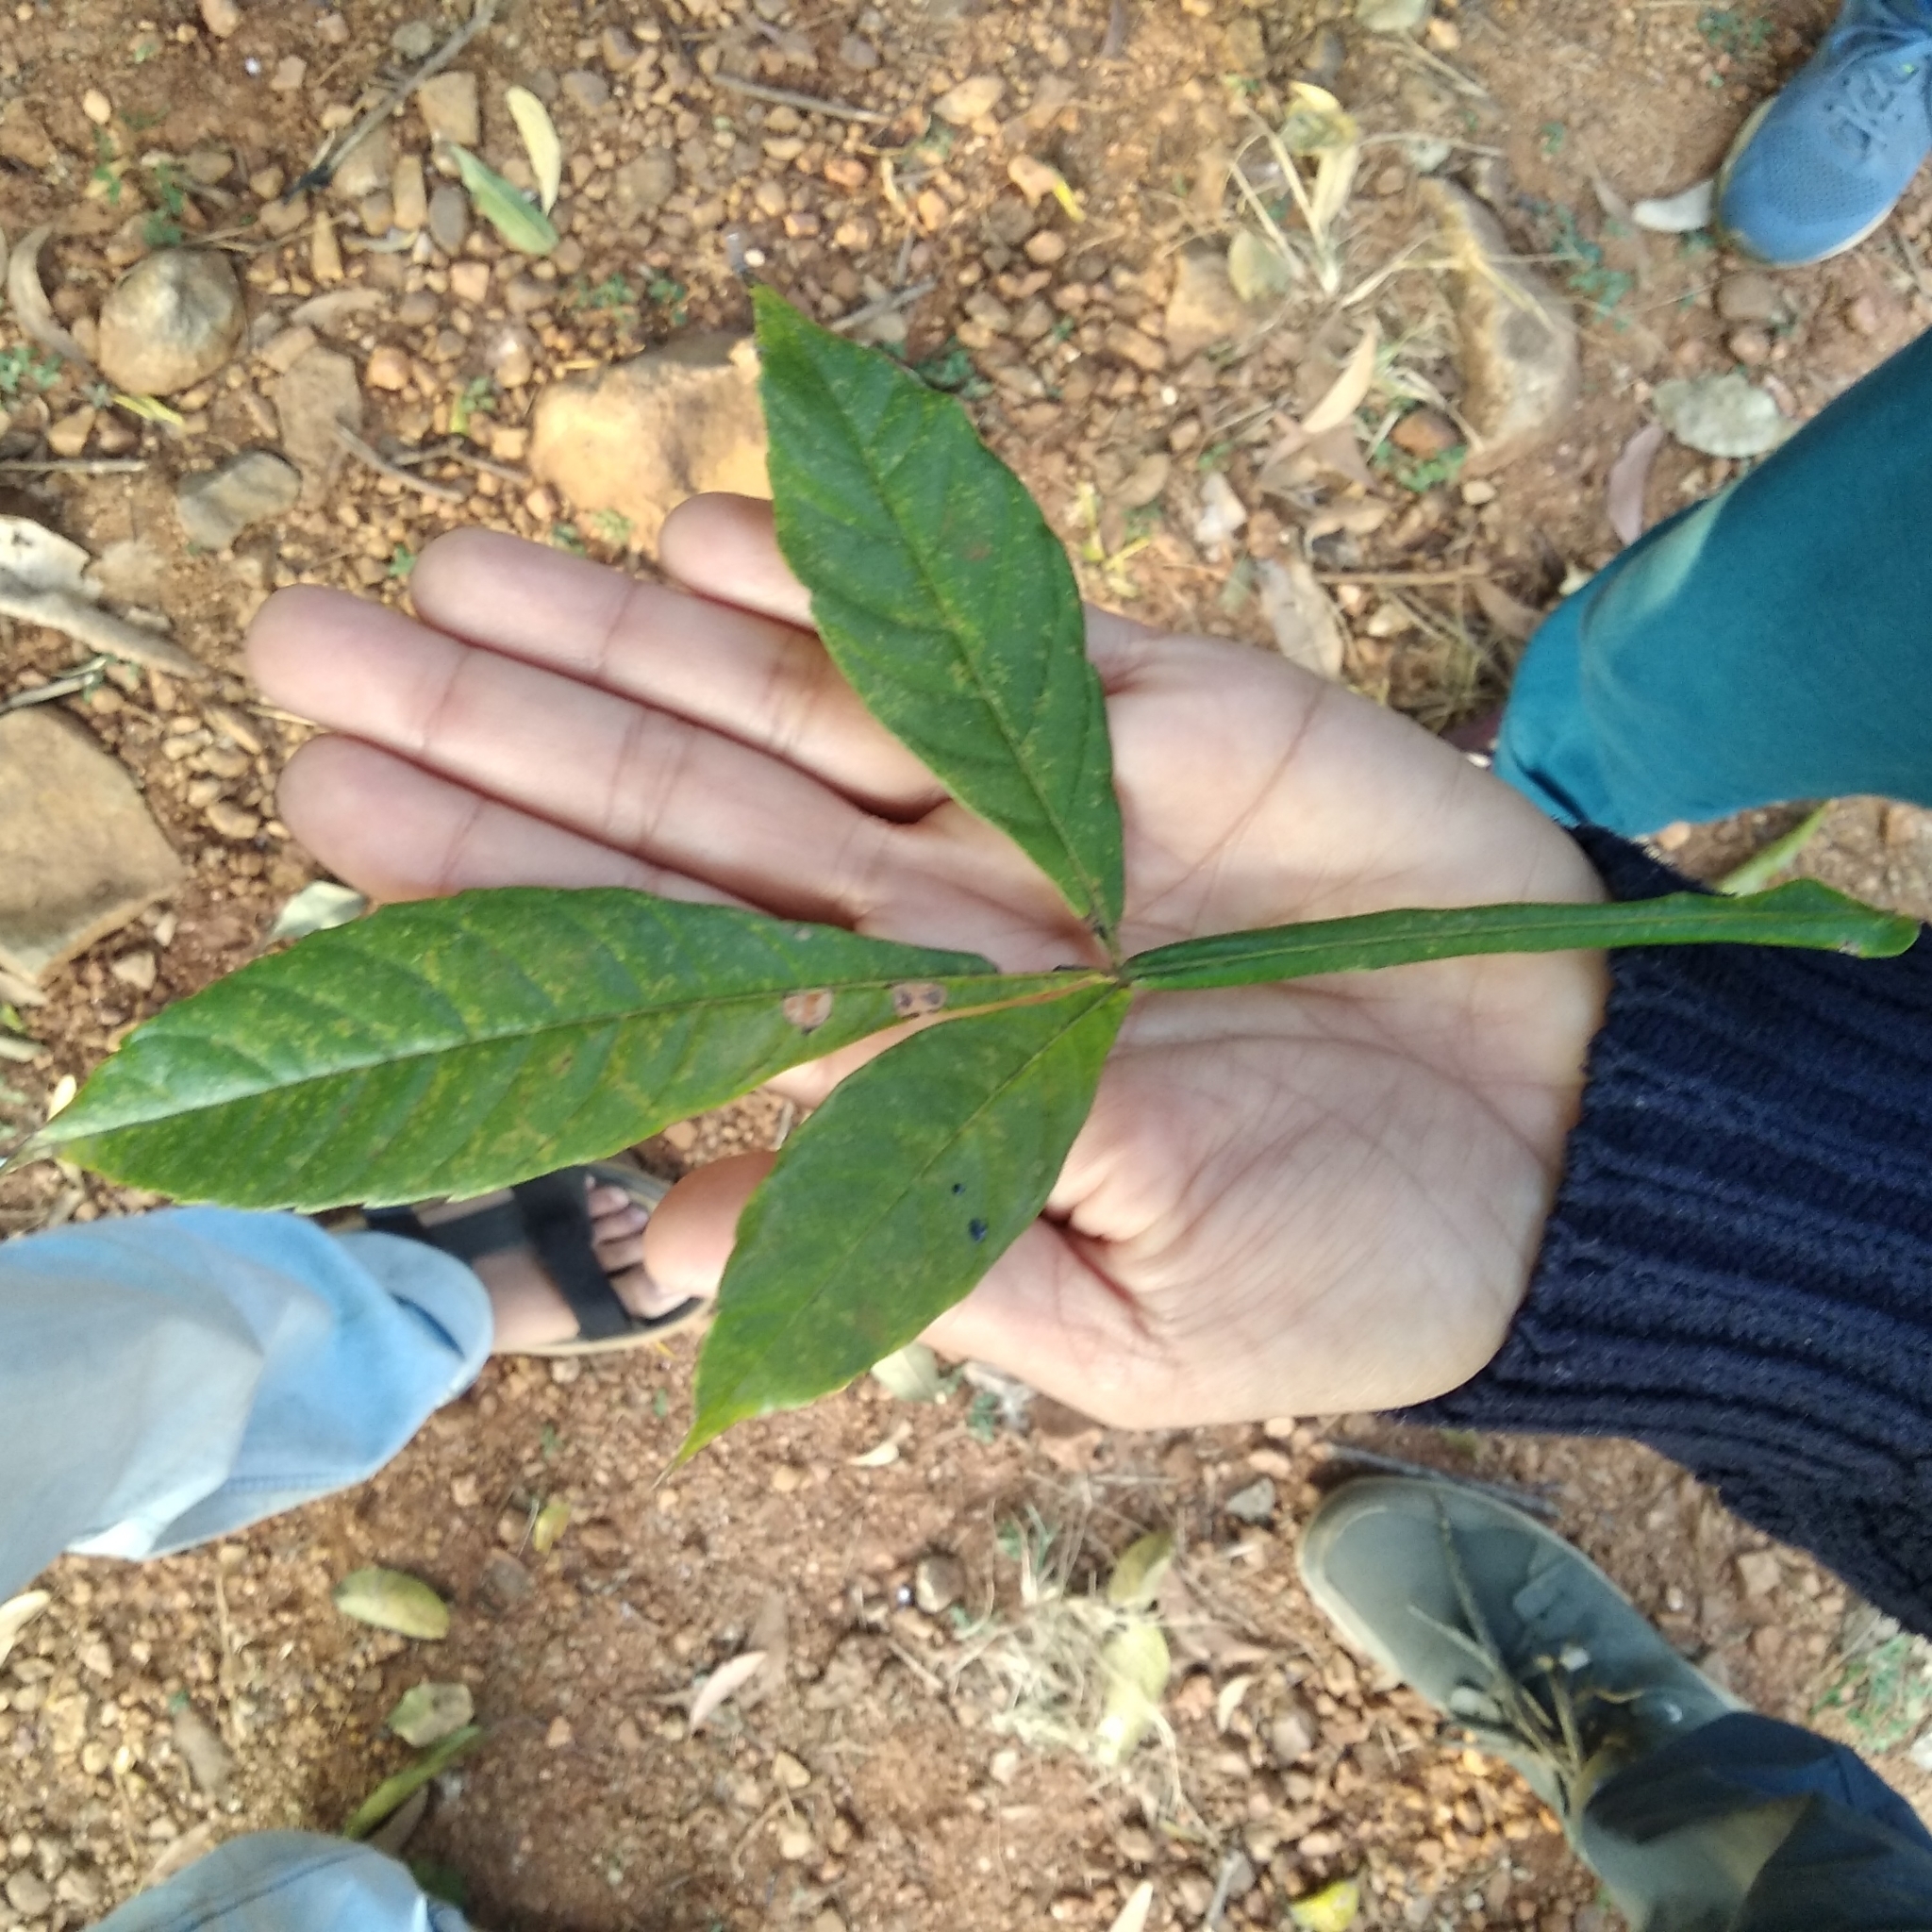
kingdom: Plantae
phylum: Tracheophyta
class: Magnoliopsida
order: Lamiales
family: Lamiaceae
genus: Vitex
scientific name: Vitex altissima
